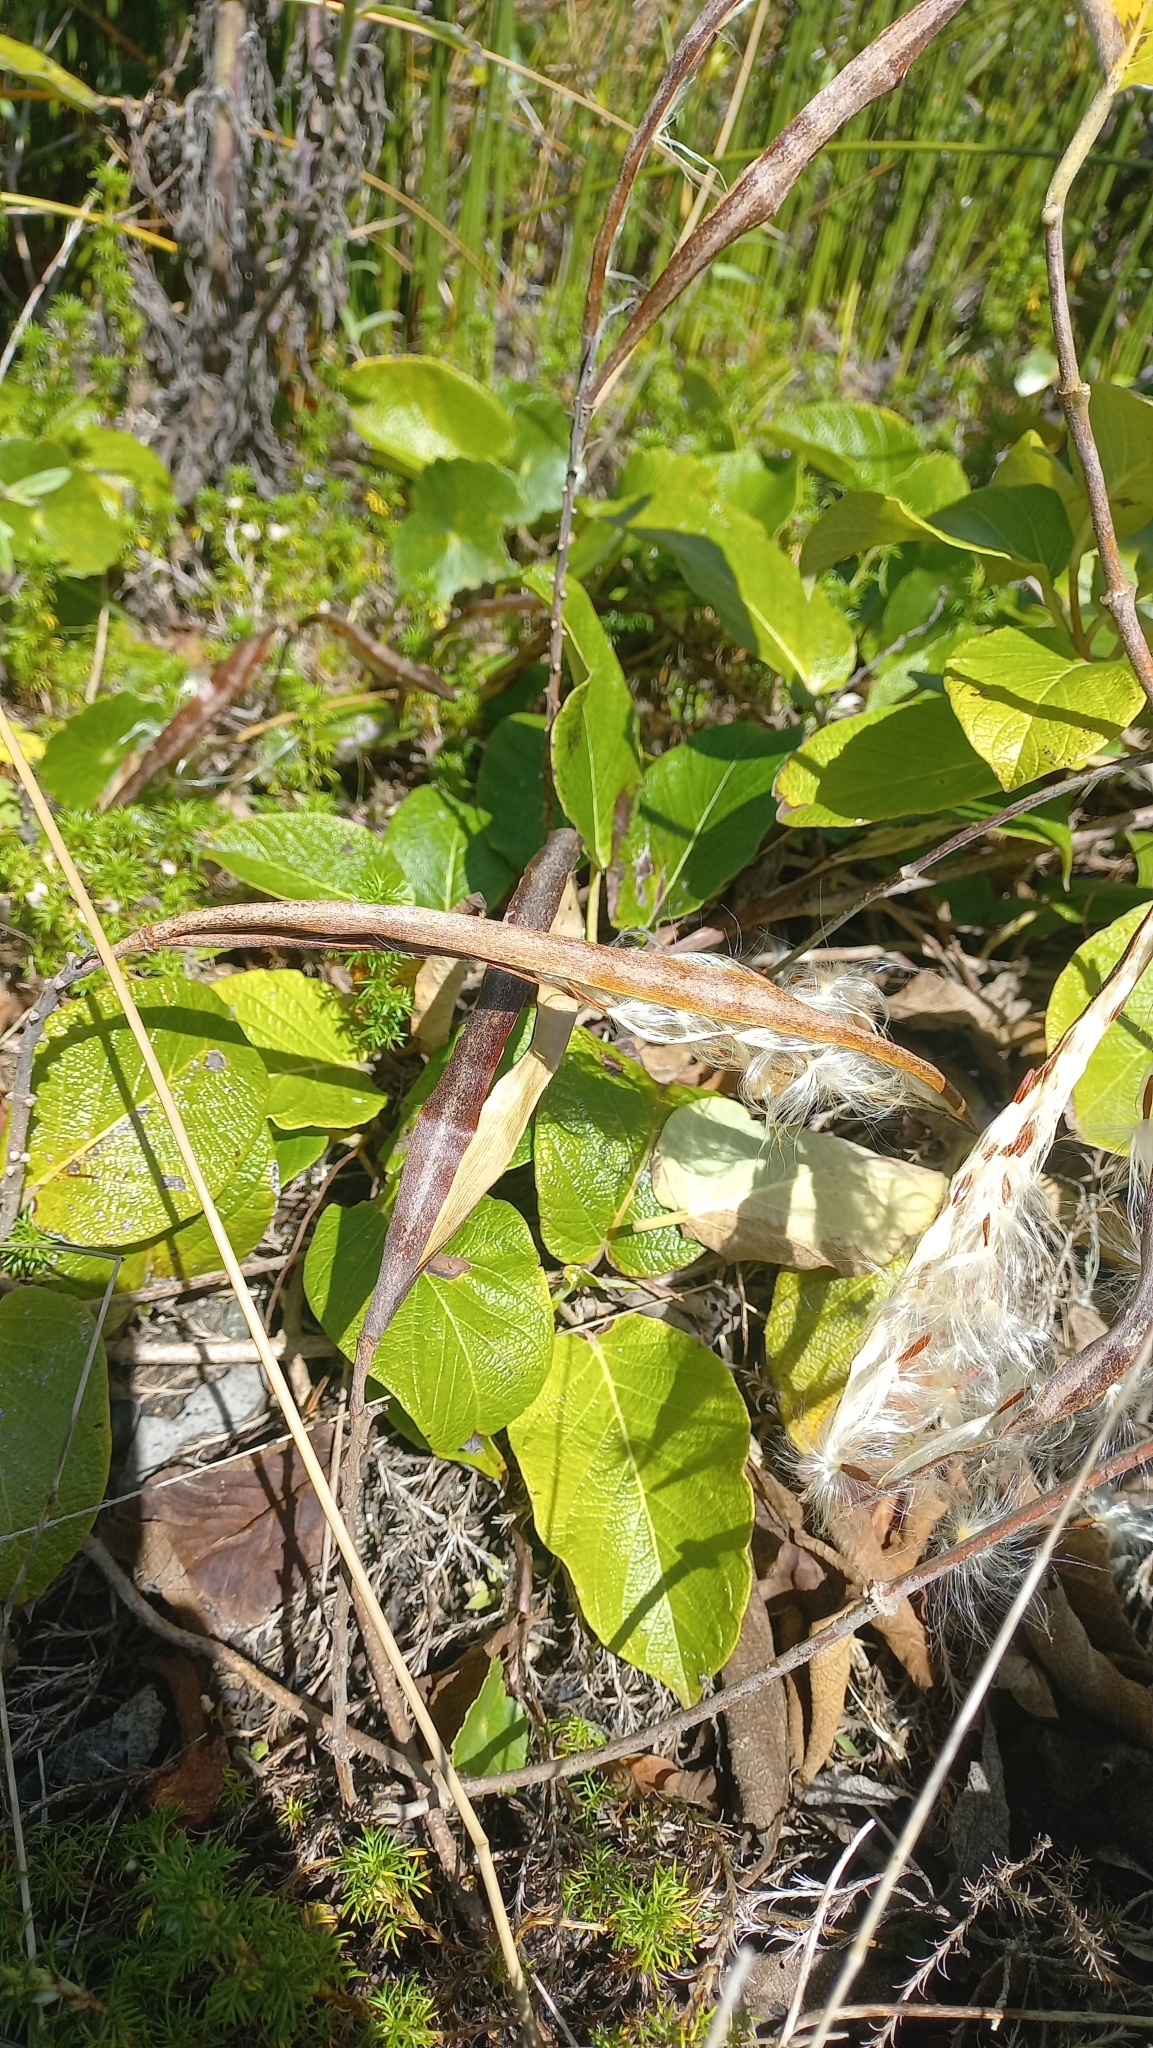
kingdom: Plantae
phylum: Tracheophyta
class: Magnoliopsida
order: Gentianales
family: Apocynaceae
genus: Mandevilla
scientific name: Mandevilla pentlandiana
